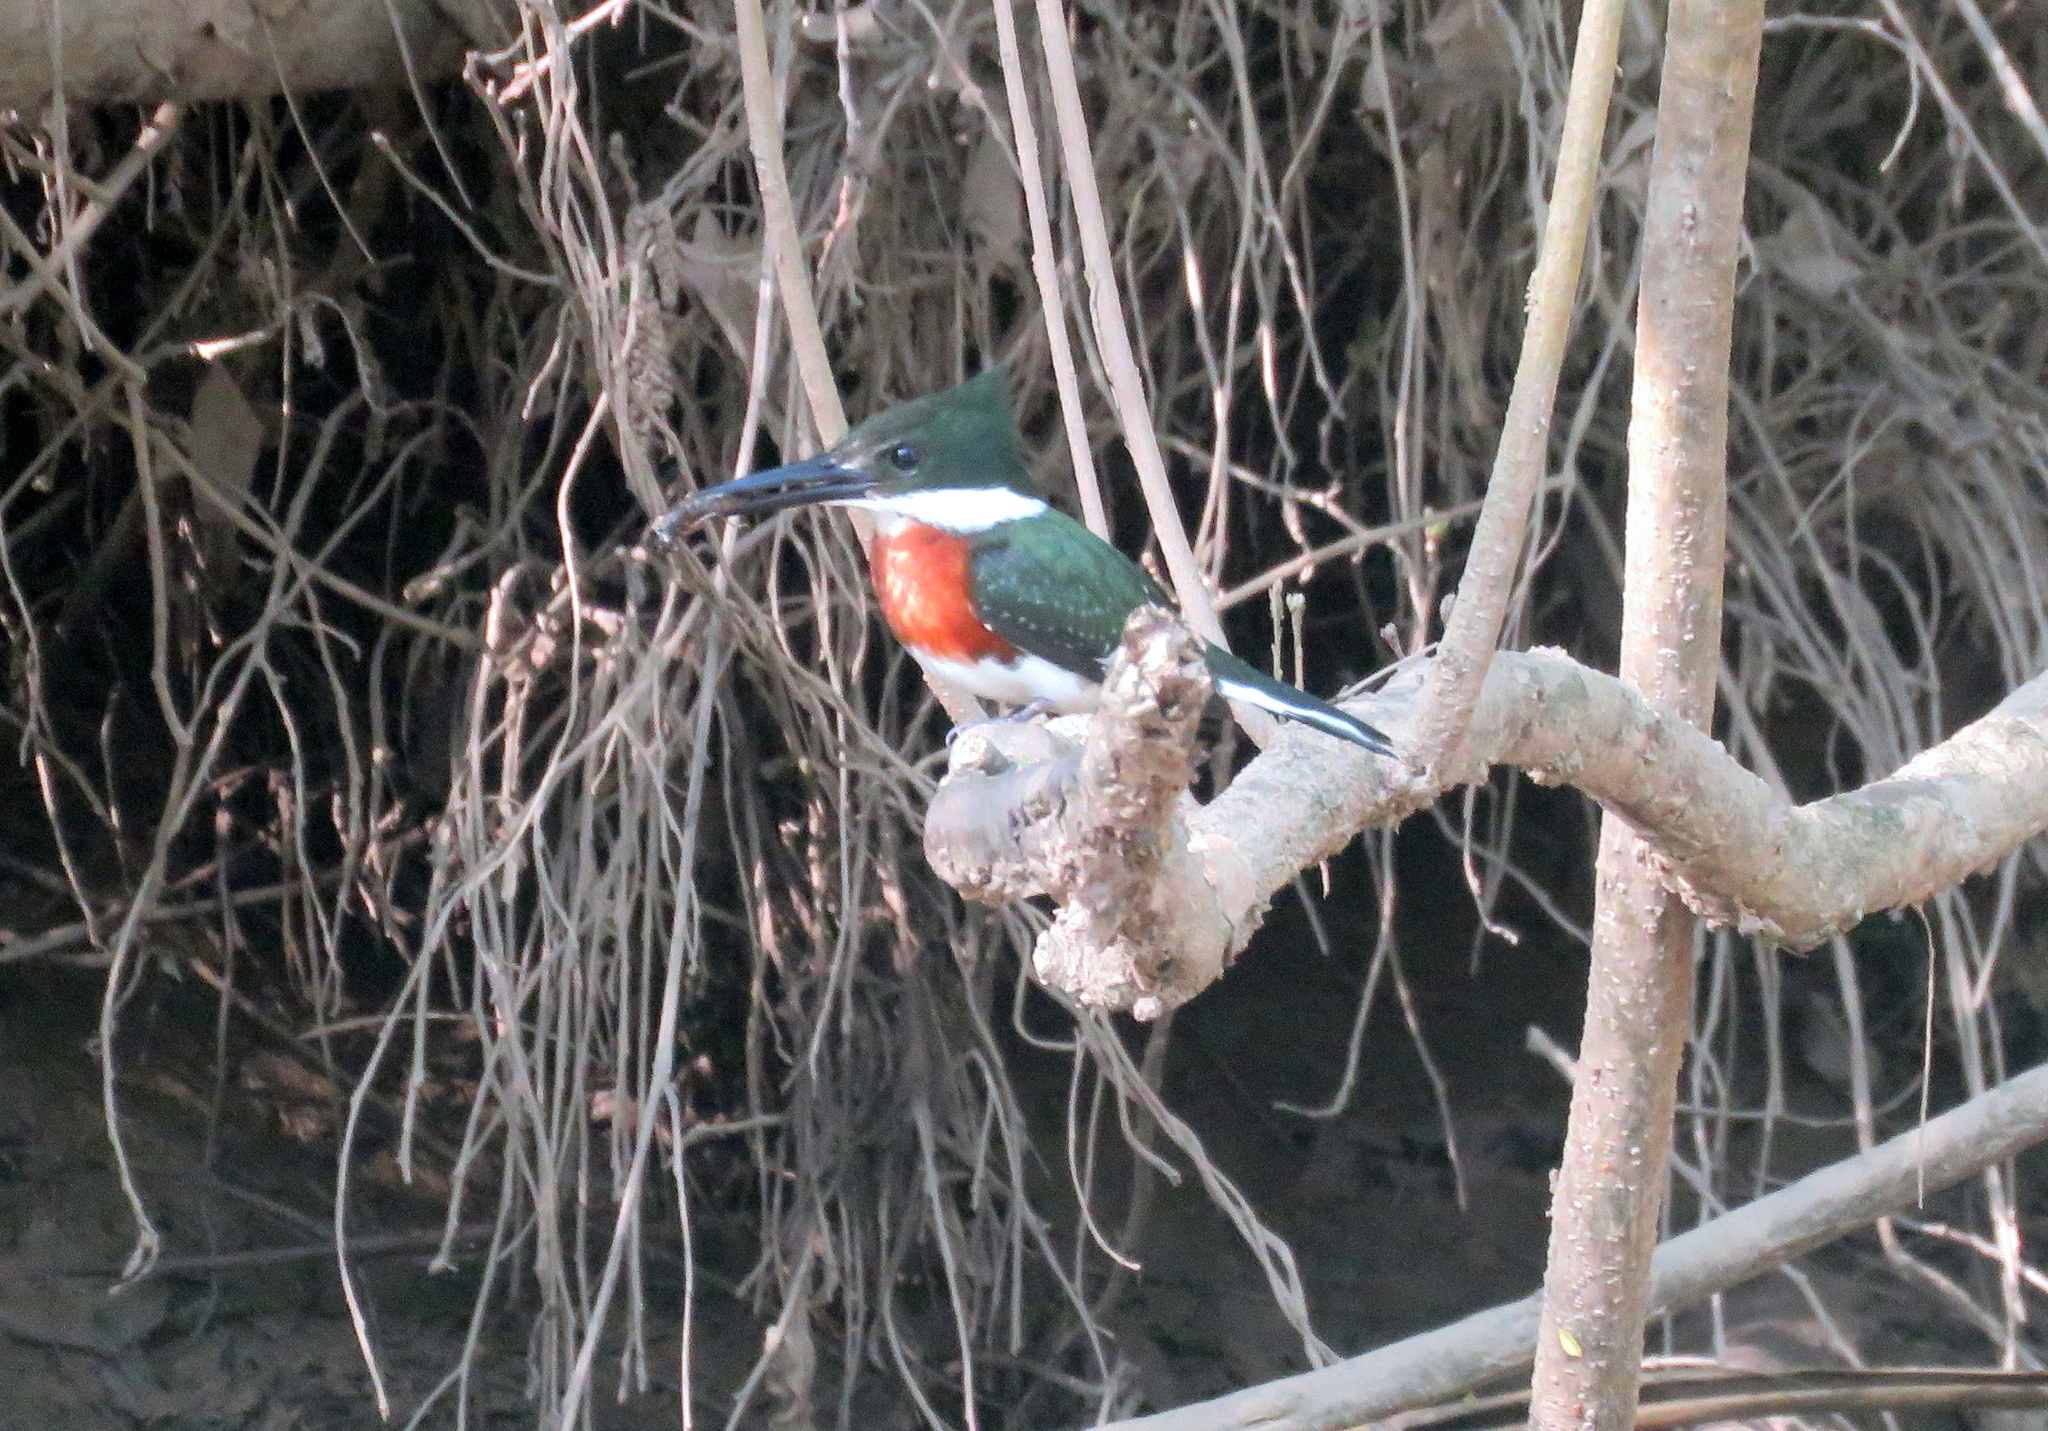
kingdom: Animalia
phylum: Chordata
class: Aves
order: Coraciiformes
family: Alcedinidae
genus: Chloroceryle
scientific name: Chloroceryle americana
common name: Green kingfisher
